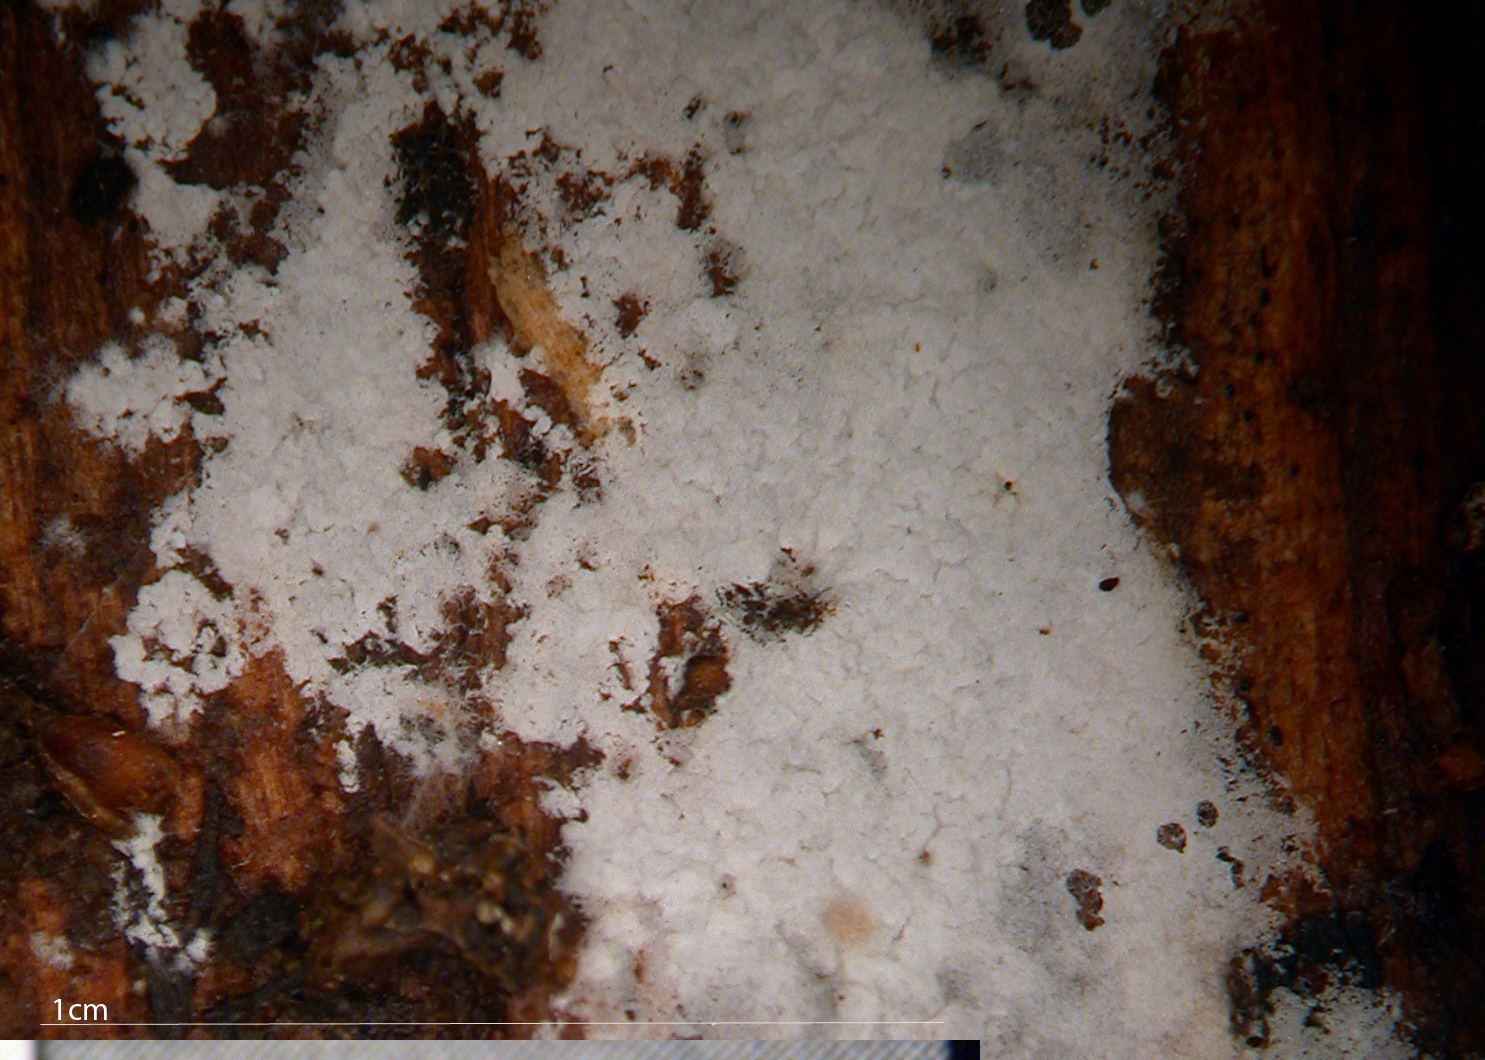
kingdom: Fungi
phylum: Basidiomycota
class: Agaricomycetes
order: Atheliales
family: Atheliaceae
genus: Athelia
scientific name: Athelia epiphylla
